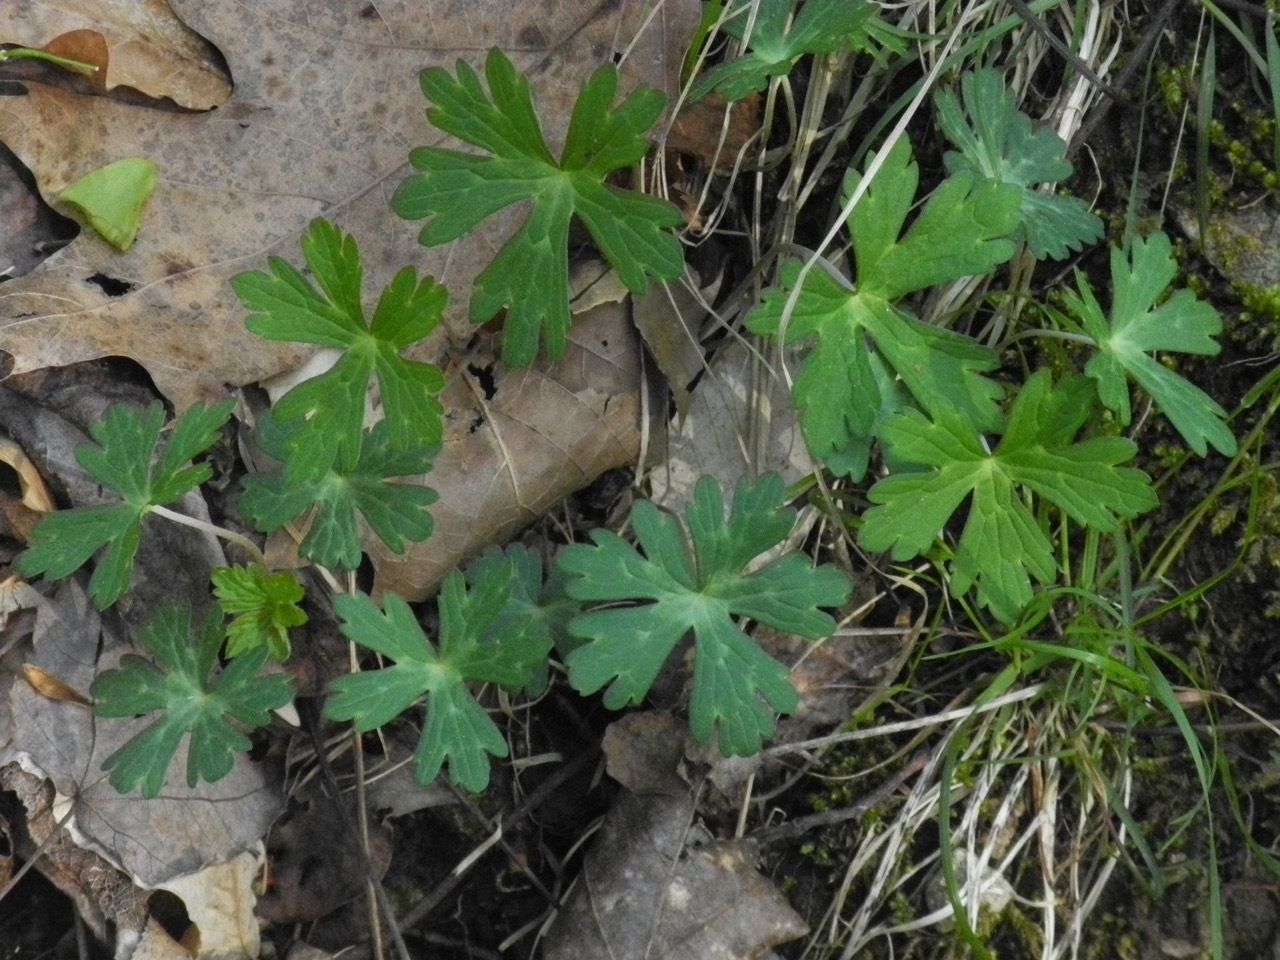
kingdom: Plantae
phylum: Tracheophyta
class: Magnoliopsida
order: Geraniales
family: Geraniaceae
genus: Geranium
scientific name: Geranium maculatum
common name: Spotted geranium
